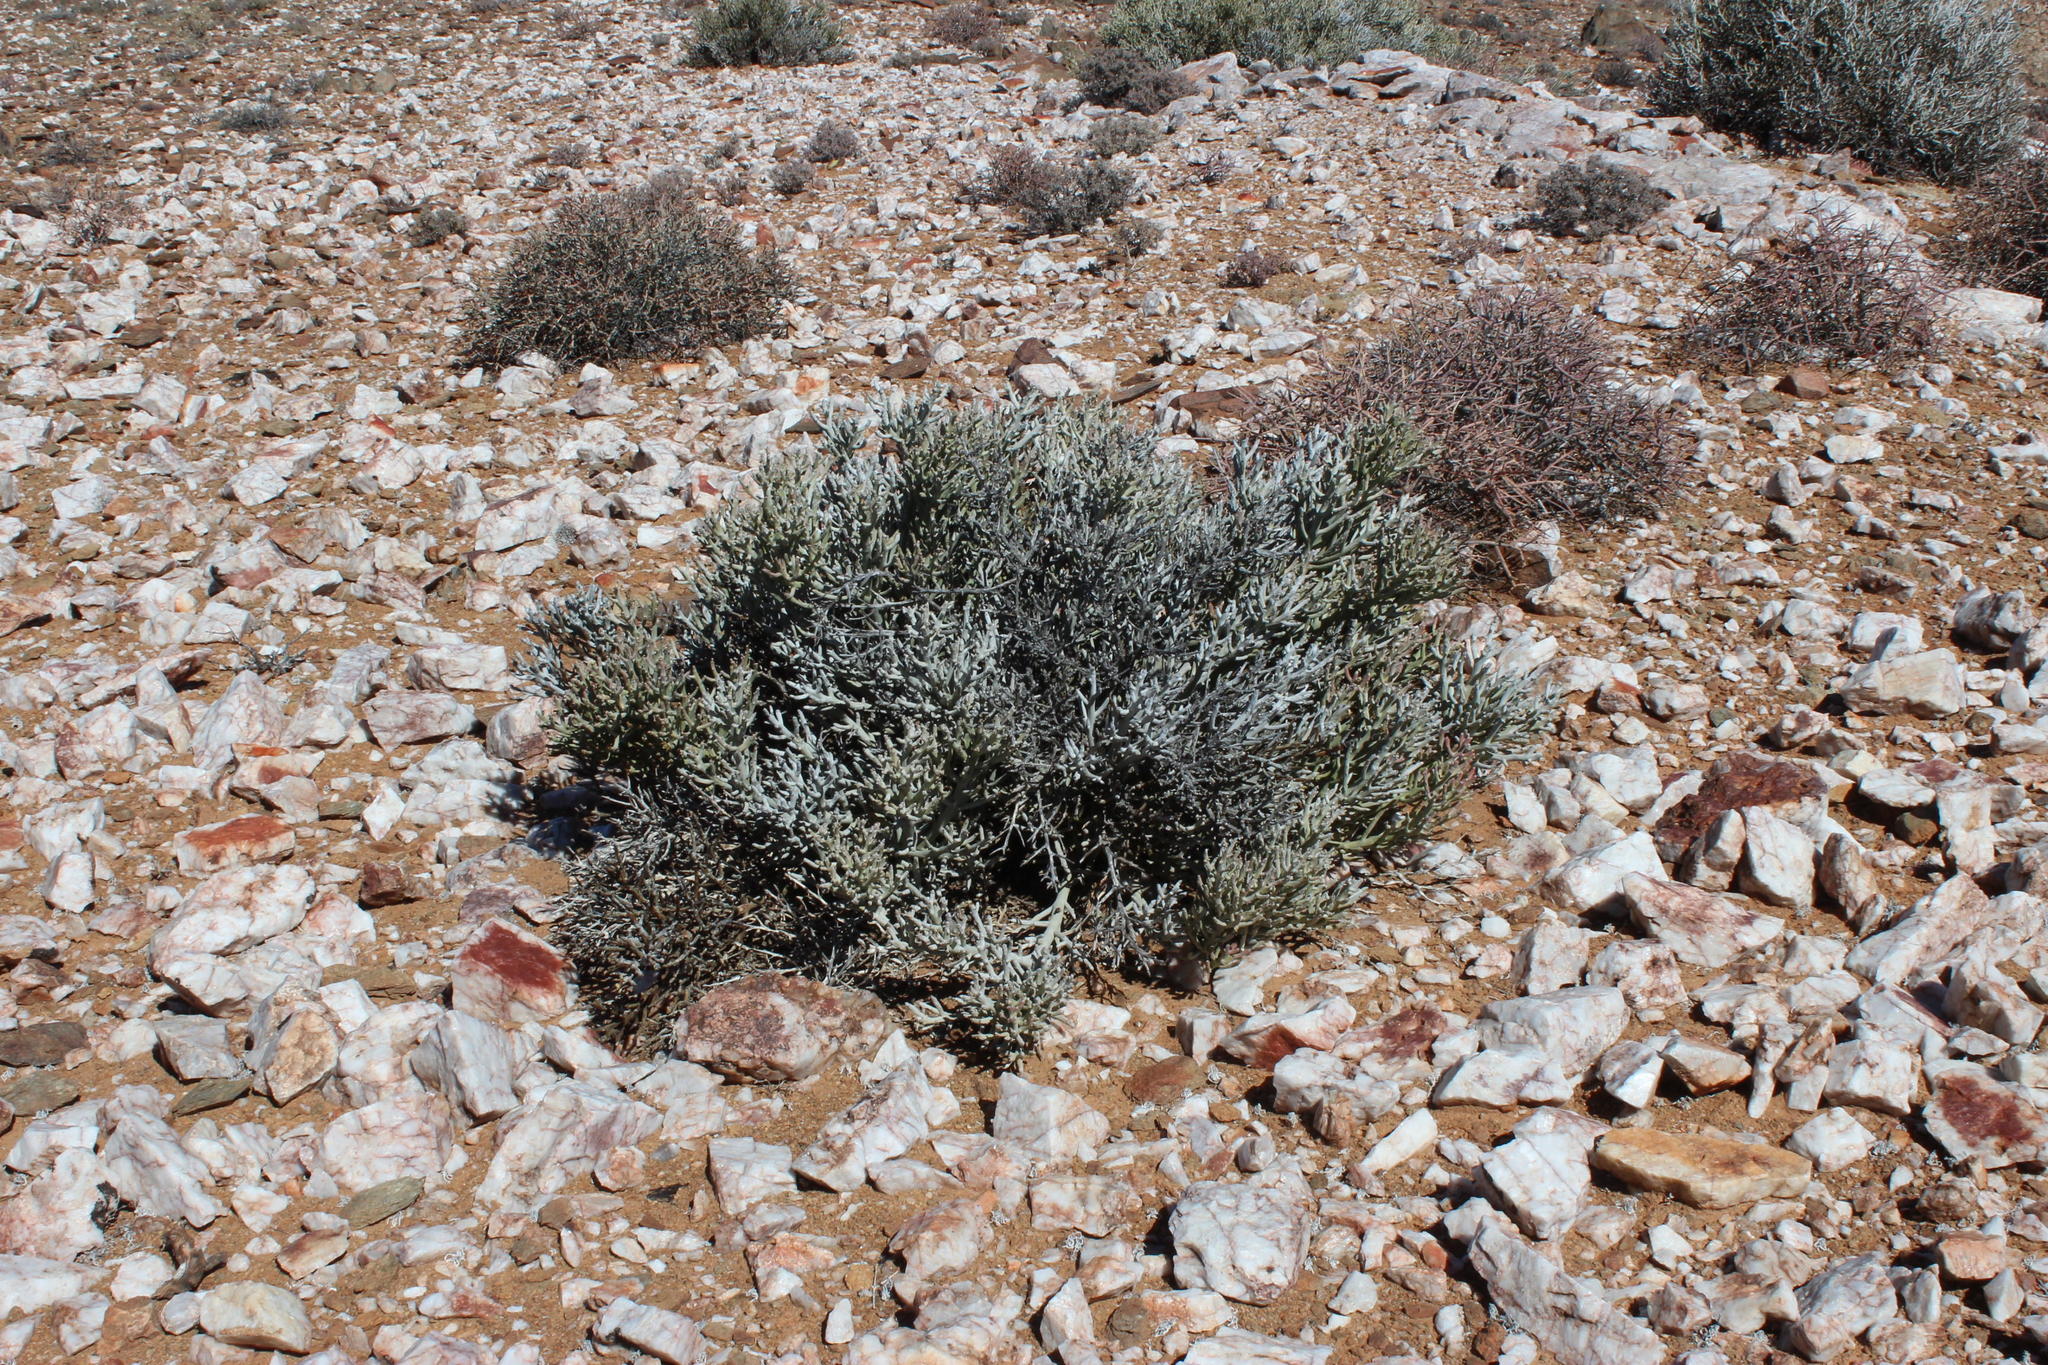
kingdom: Plantae
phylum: Tracheophyta
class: Magnoliopsida
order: Malpighiales
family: Euphorbiaceae
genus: Euphorbia
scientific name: Euphorbia gummifera
